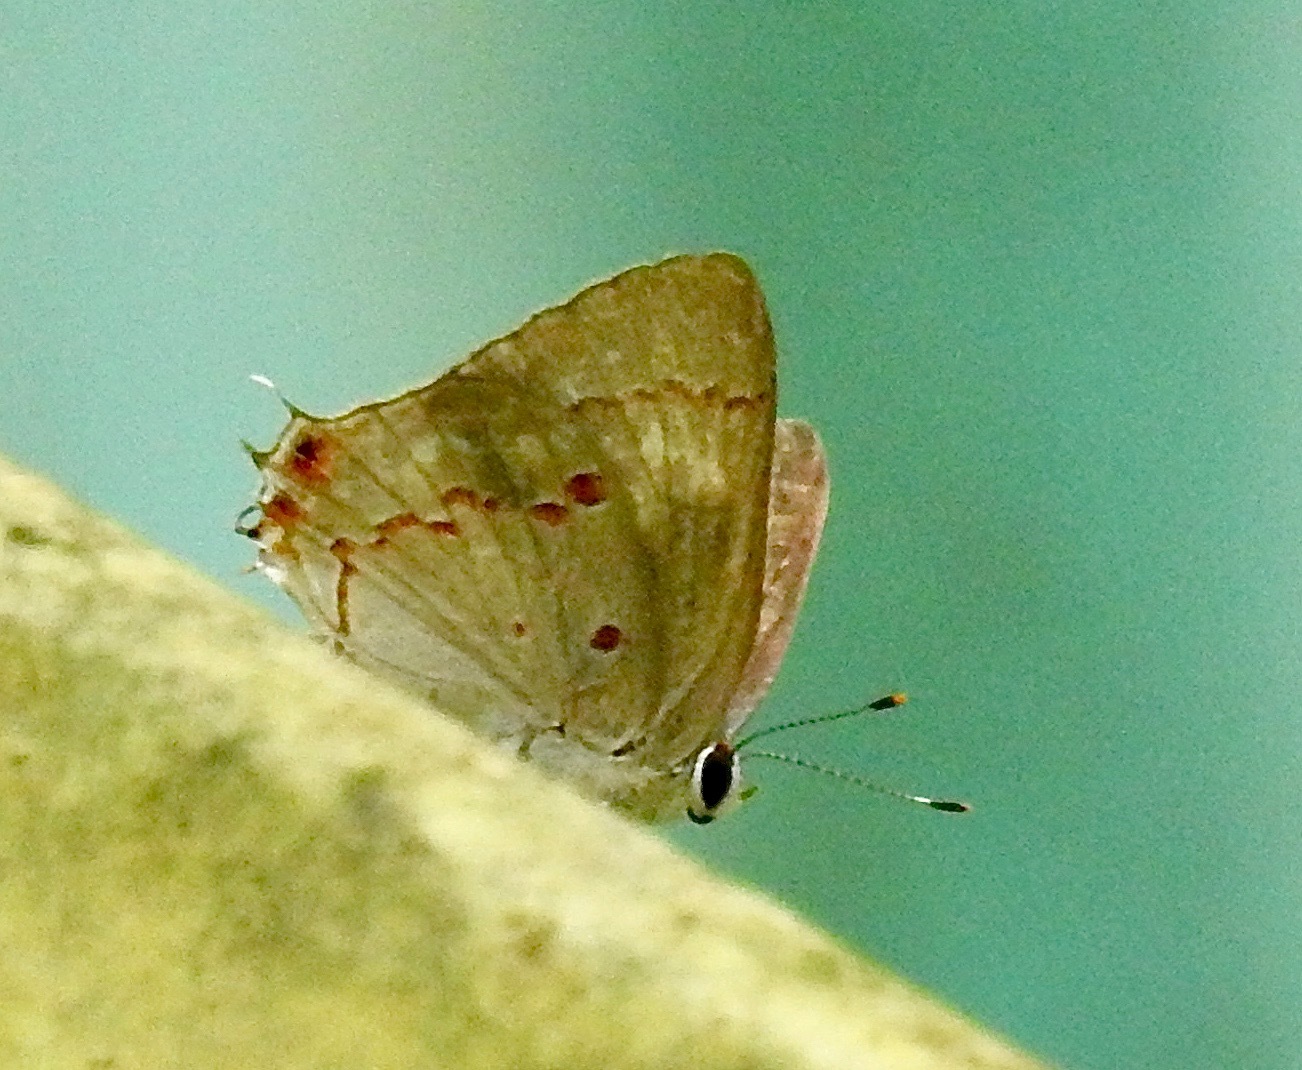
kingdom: Animalia
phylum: Arthropoda
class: Insecta
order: Lepidoptera
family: Lycaenidae
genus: Thecla
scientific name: Thecla megarus
